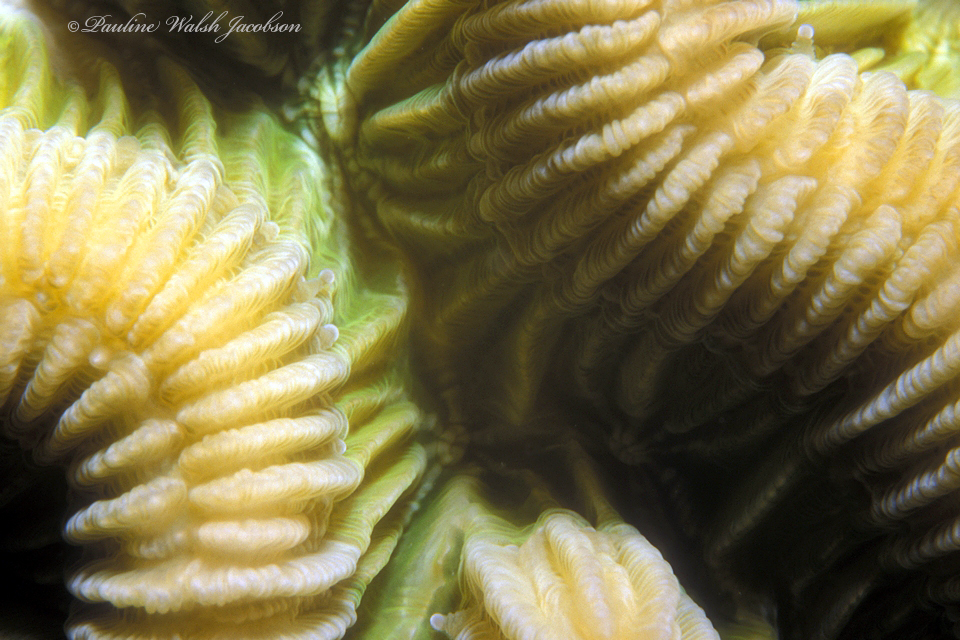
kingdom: Animalia
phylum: Cnidaria
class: Anthozoa
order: Scleractinia
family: Faviidae
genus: Colpophyllia
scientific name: Colpophyllia natans
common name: Boulder brain coral
